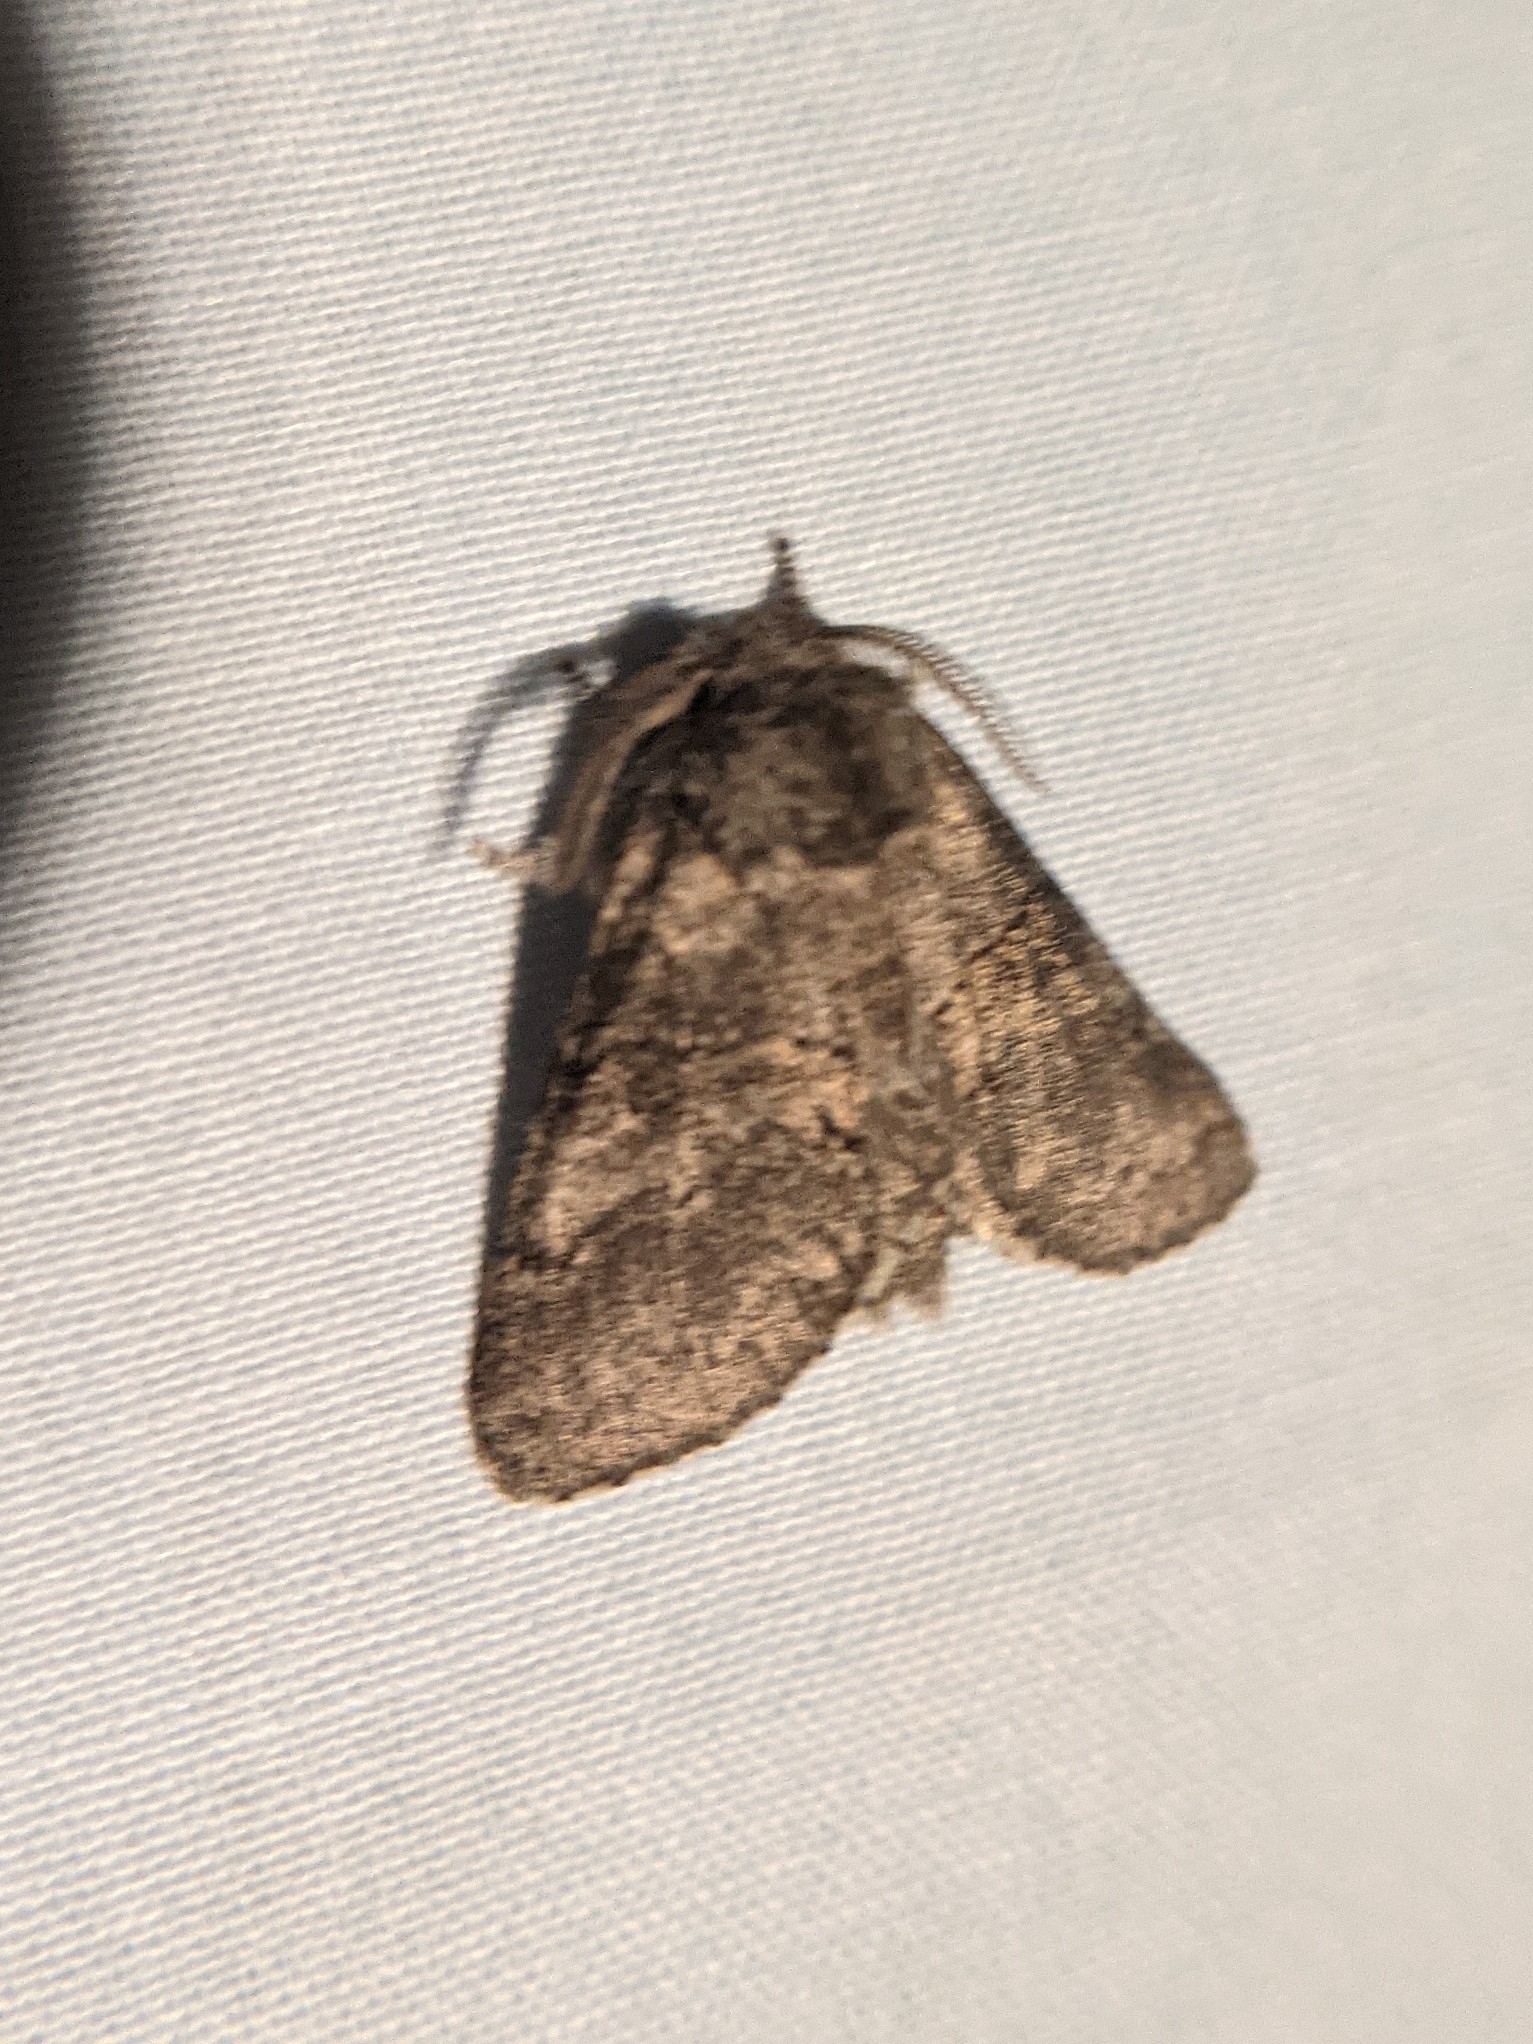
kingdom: Animalia
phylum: Arthropoda
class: Insecta
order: Lepidoptera
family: Notodontidae
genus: Gluphisia
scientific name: Gluphisia septentrionis
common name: Common gluphisia
